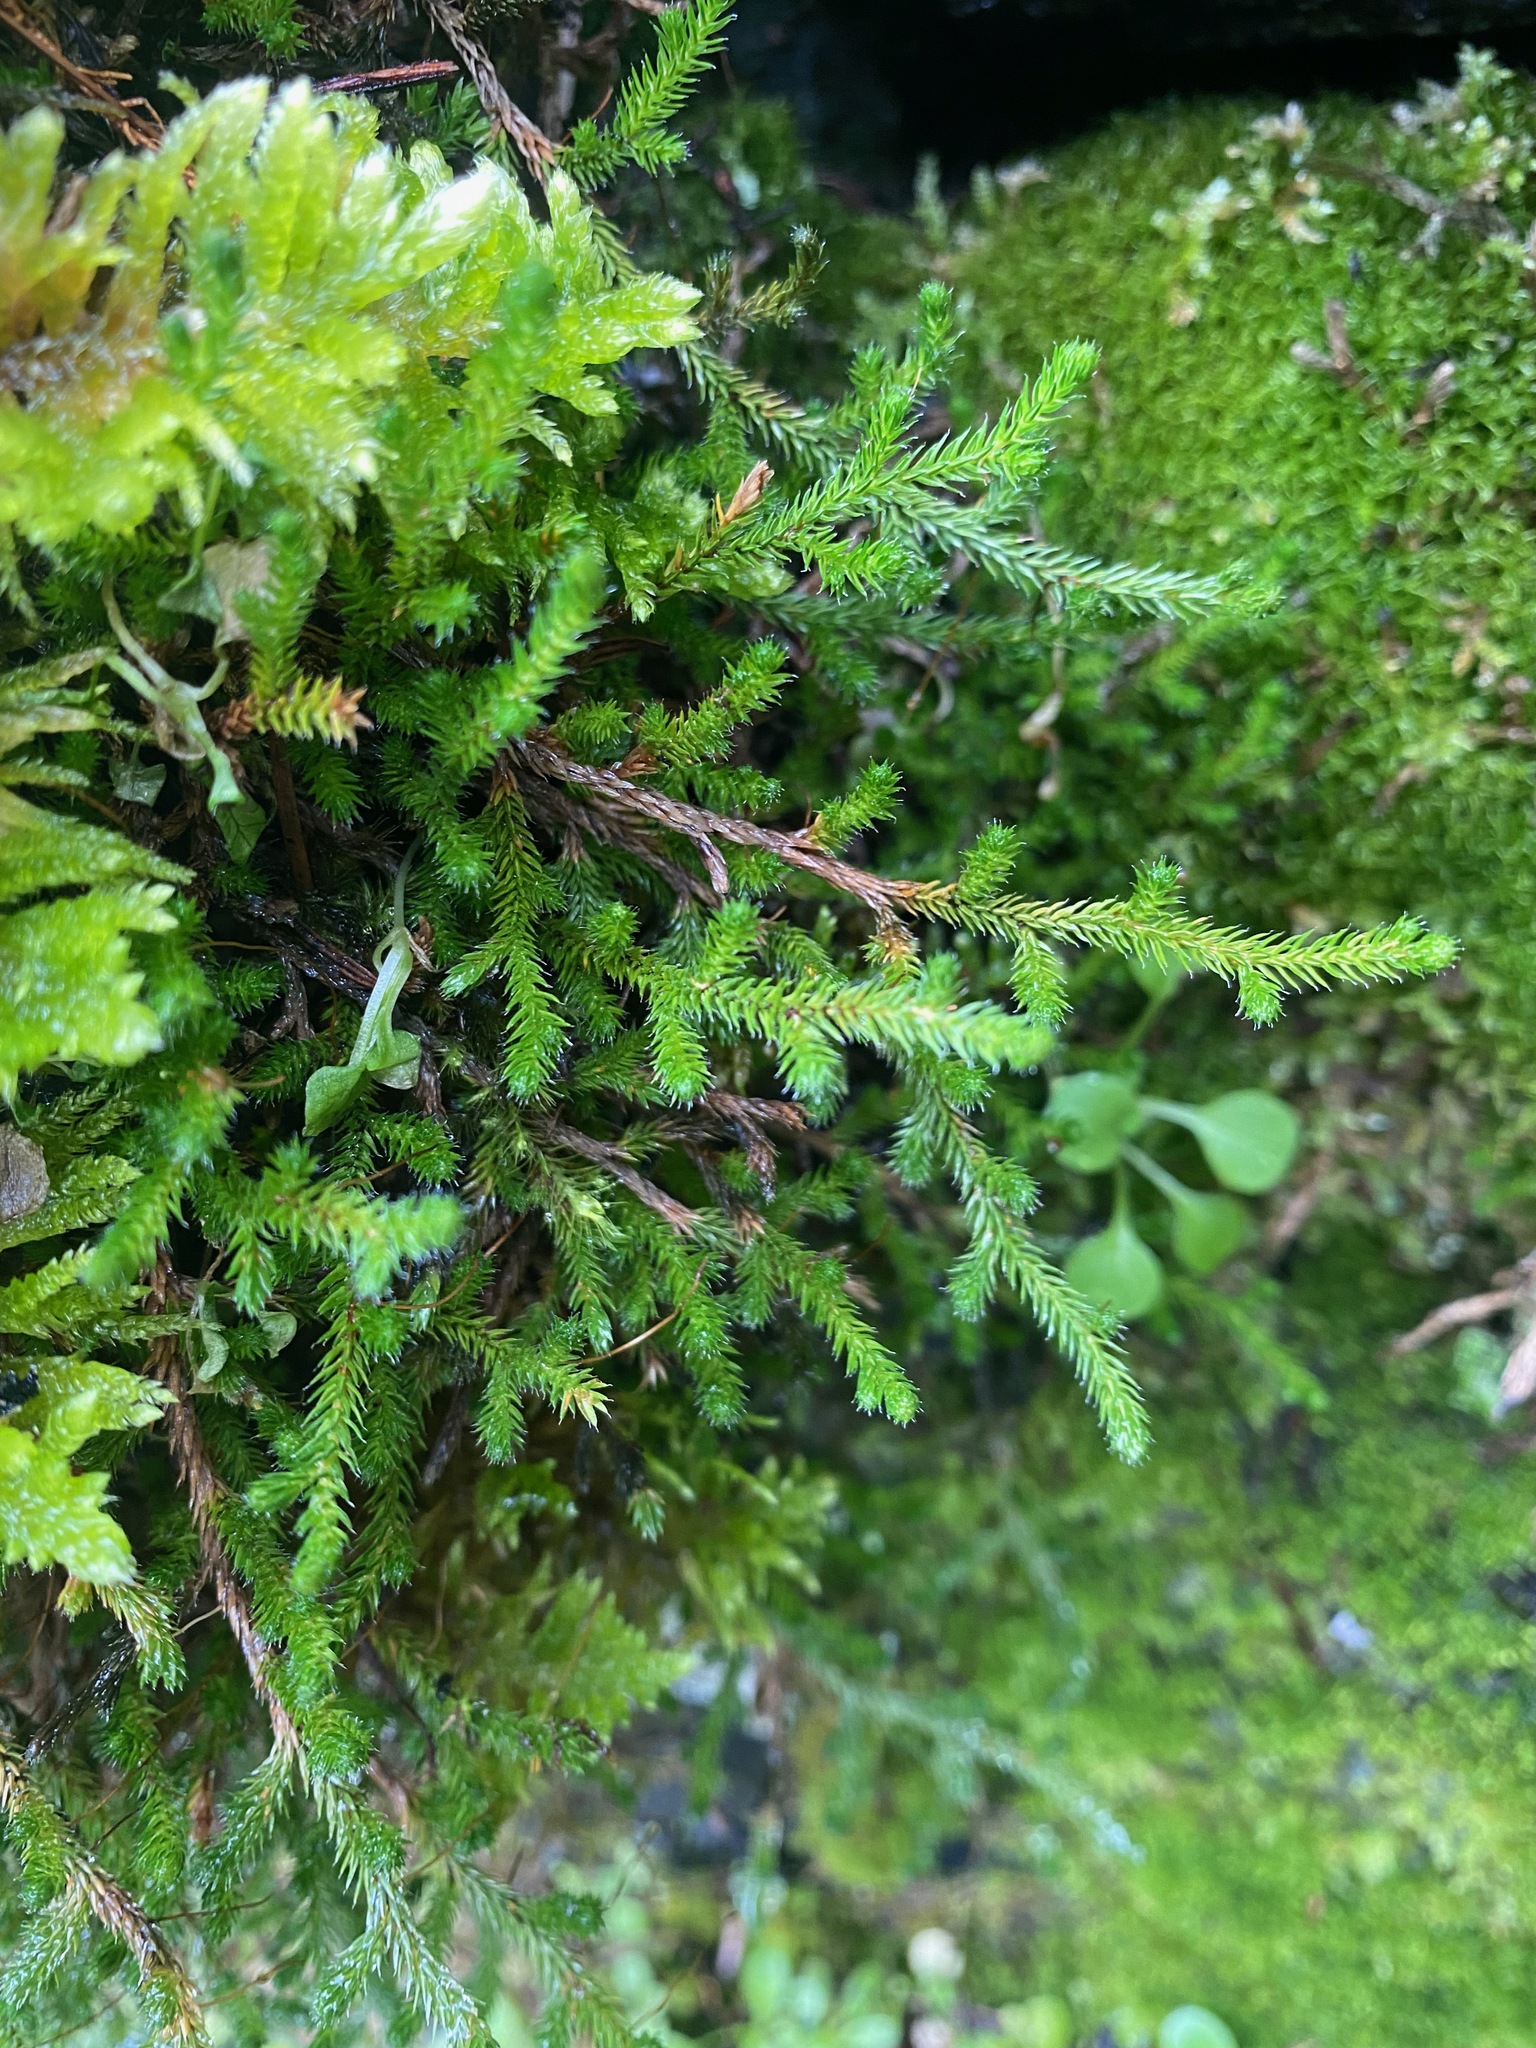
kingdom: Plantae
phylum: Tracheophyta
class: Lycopodiopsida
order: Selaginellales
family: Selaginellaceae
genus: Selaginella
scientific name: Selaginella wallacei
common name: Wallace's selaginella
